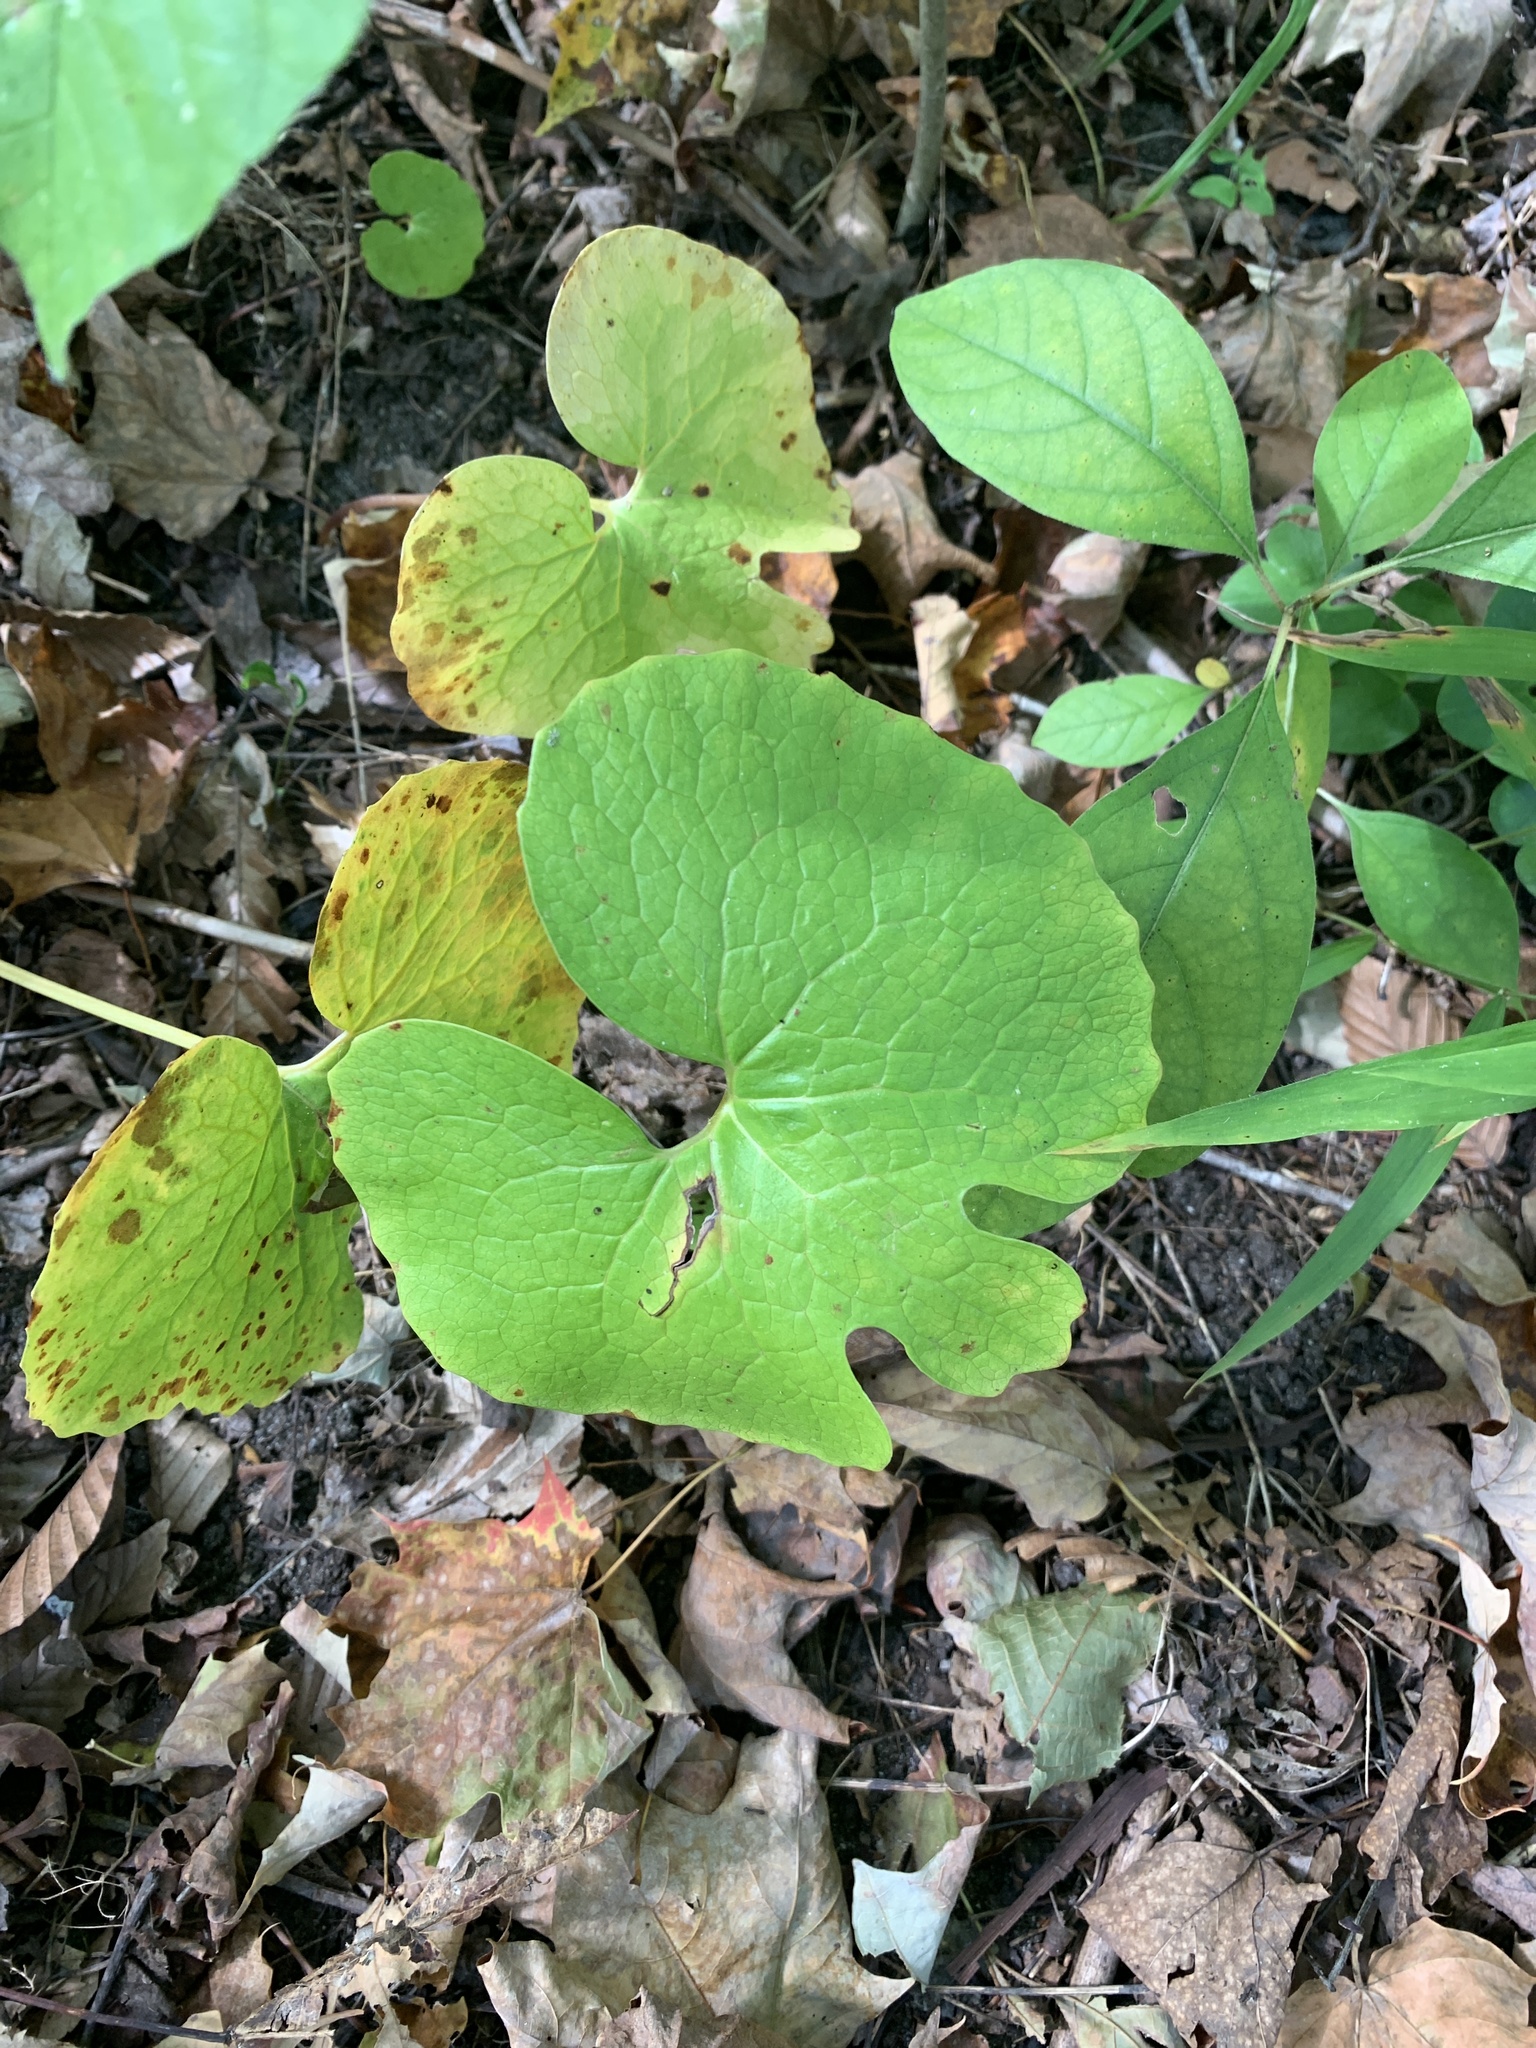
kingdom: Plantae
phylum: Tracheophyta
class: Magnoliopsida
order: Ranunculales
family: Papaveraceae
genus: Sanguinaria
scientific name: Sanguinaria canadensis
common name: Bloodroot
